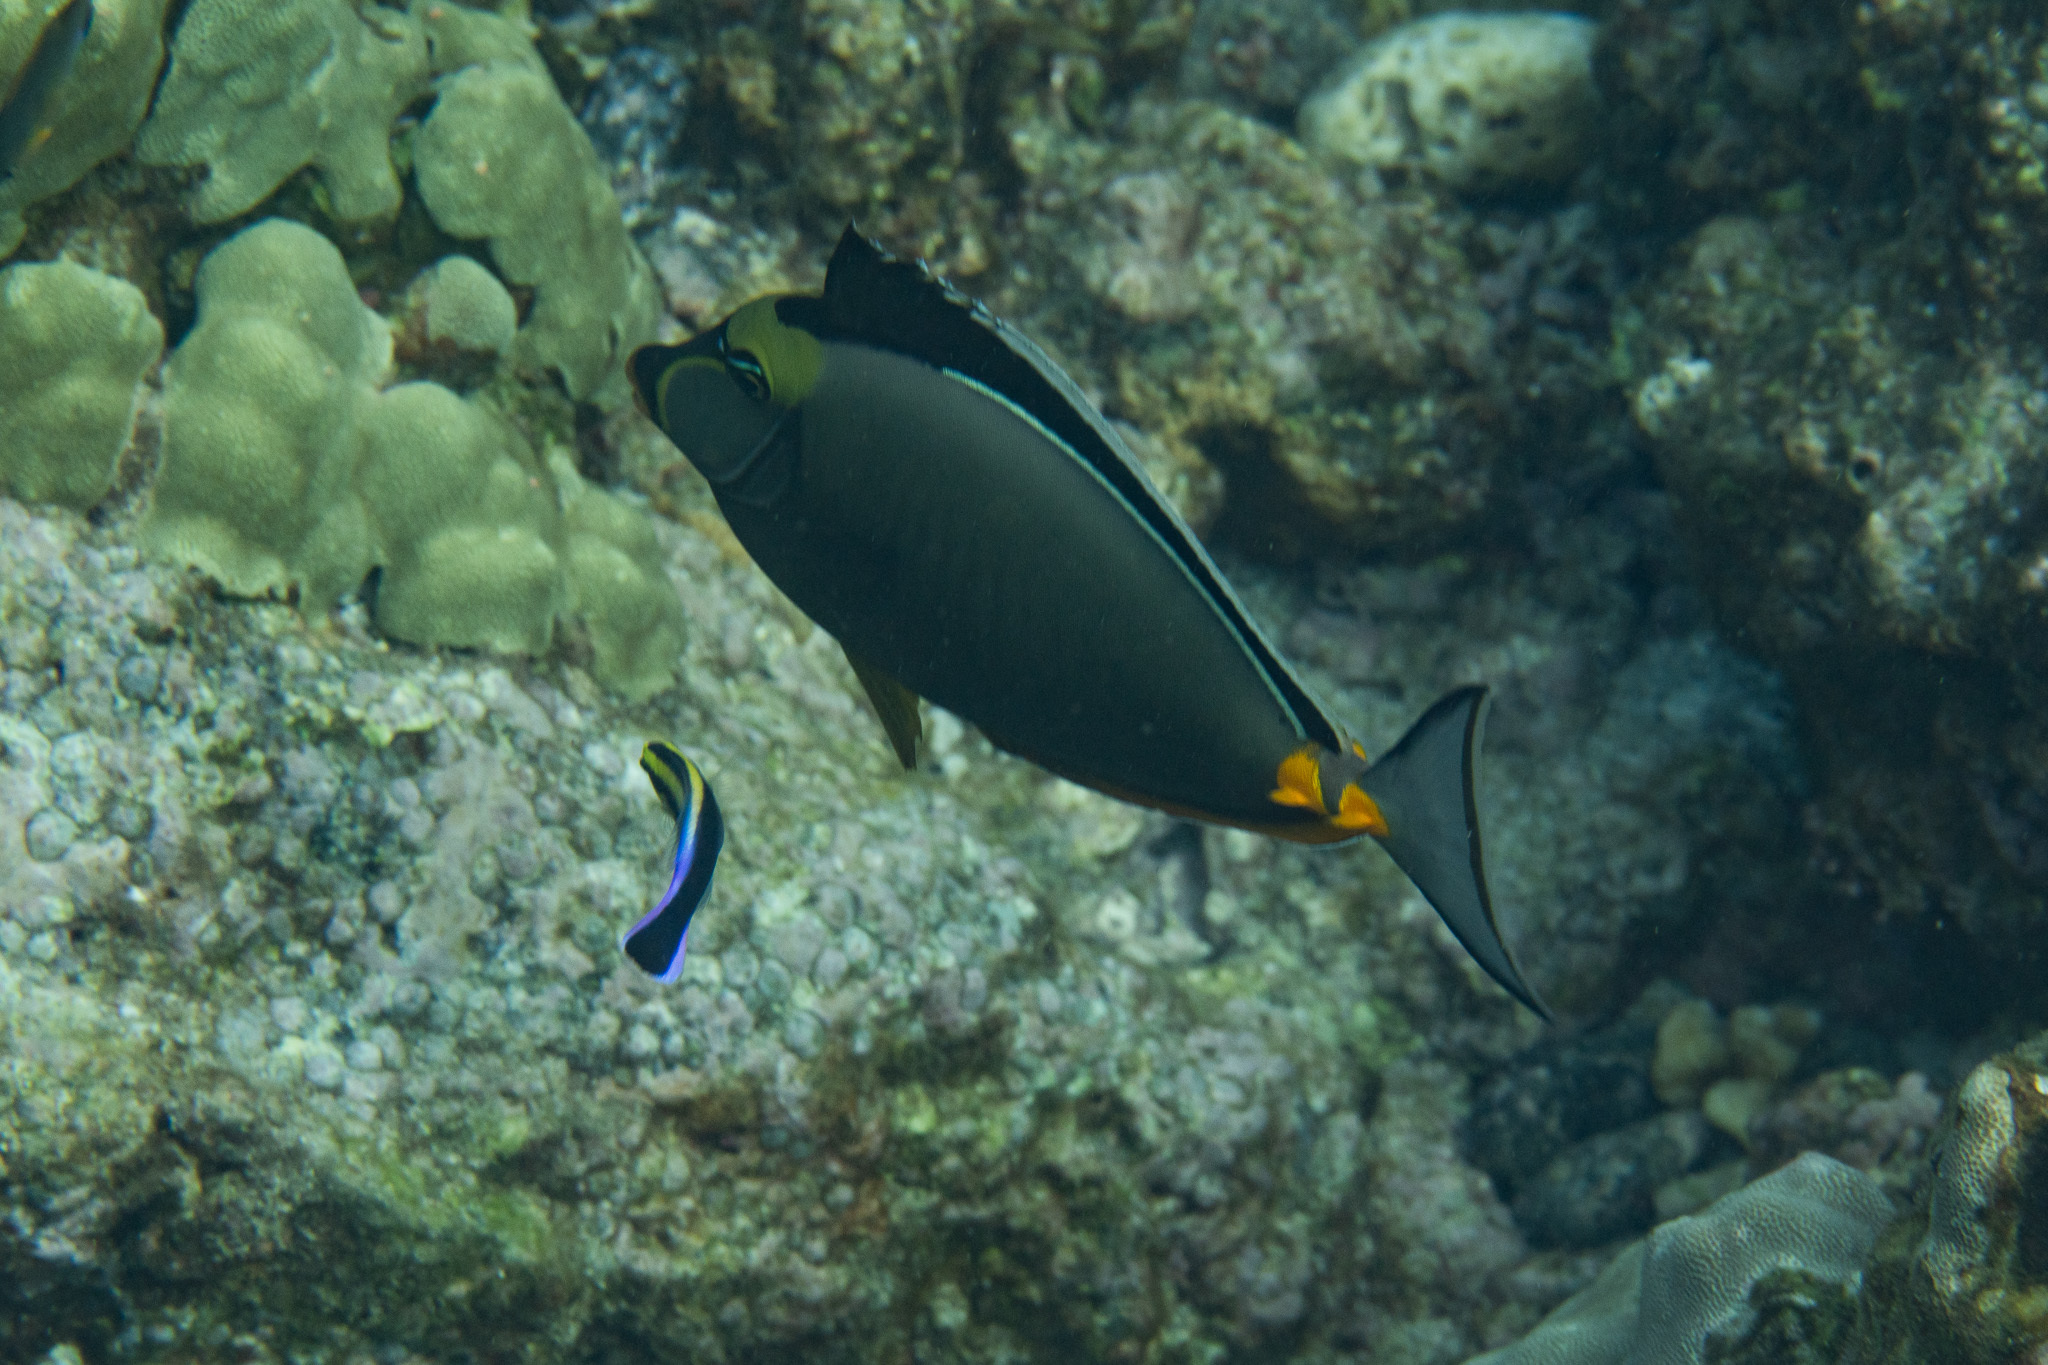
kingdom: Animalia
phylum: Chordata
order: Perciformes
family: Acanthuridae
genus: Naso
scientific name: Naso lituratus
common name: Orangespine unicornfish
